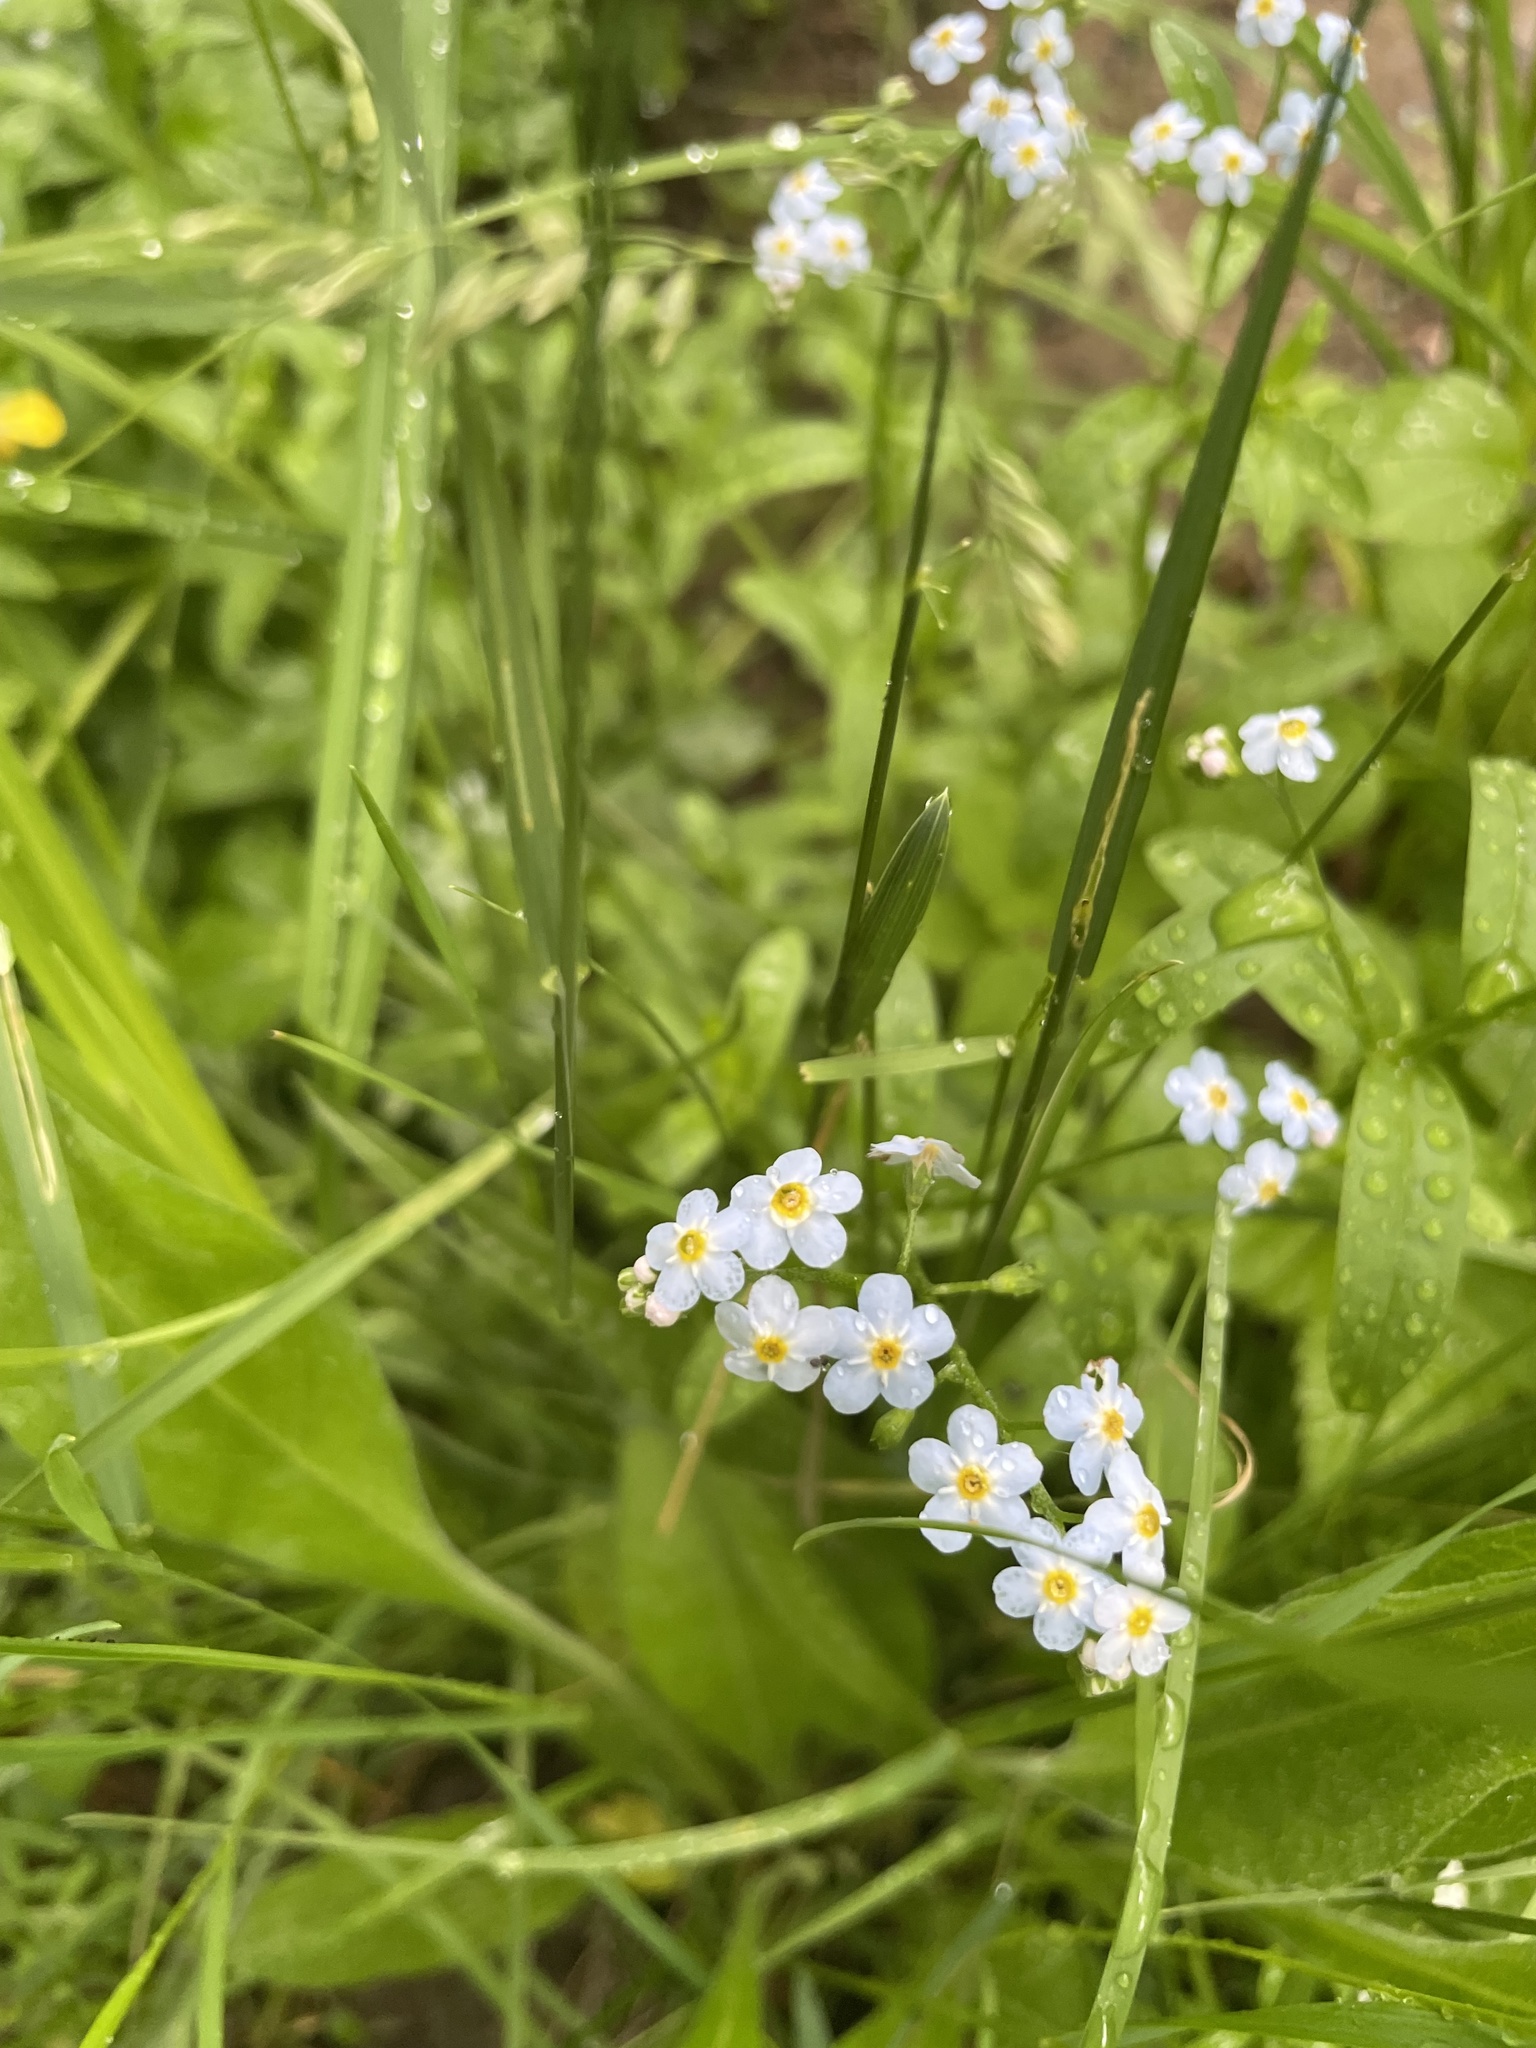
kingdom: Plantae
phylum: Tracheophyta
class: Magnoliopsida
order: Boraginales
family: Boraginaceae
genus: Myosotis
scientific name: Myosotis scorpioides
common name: Water forget-me-not
